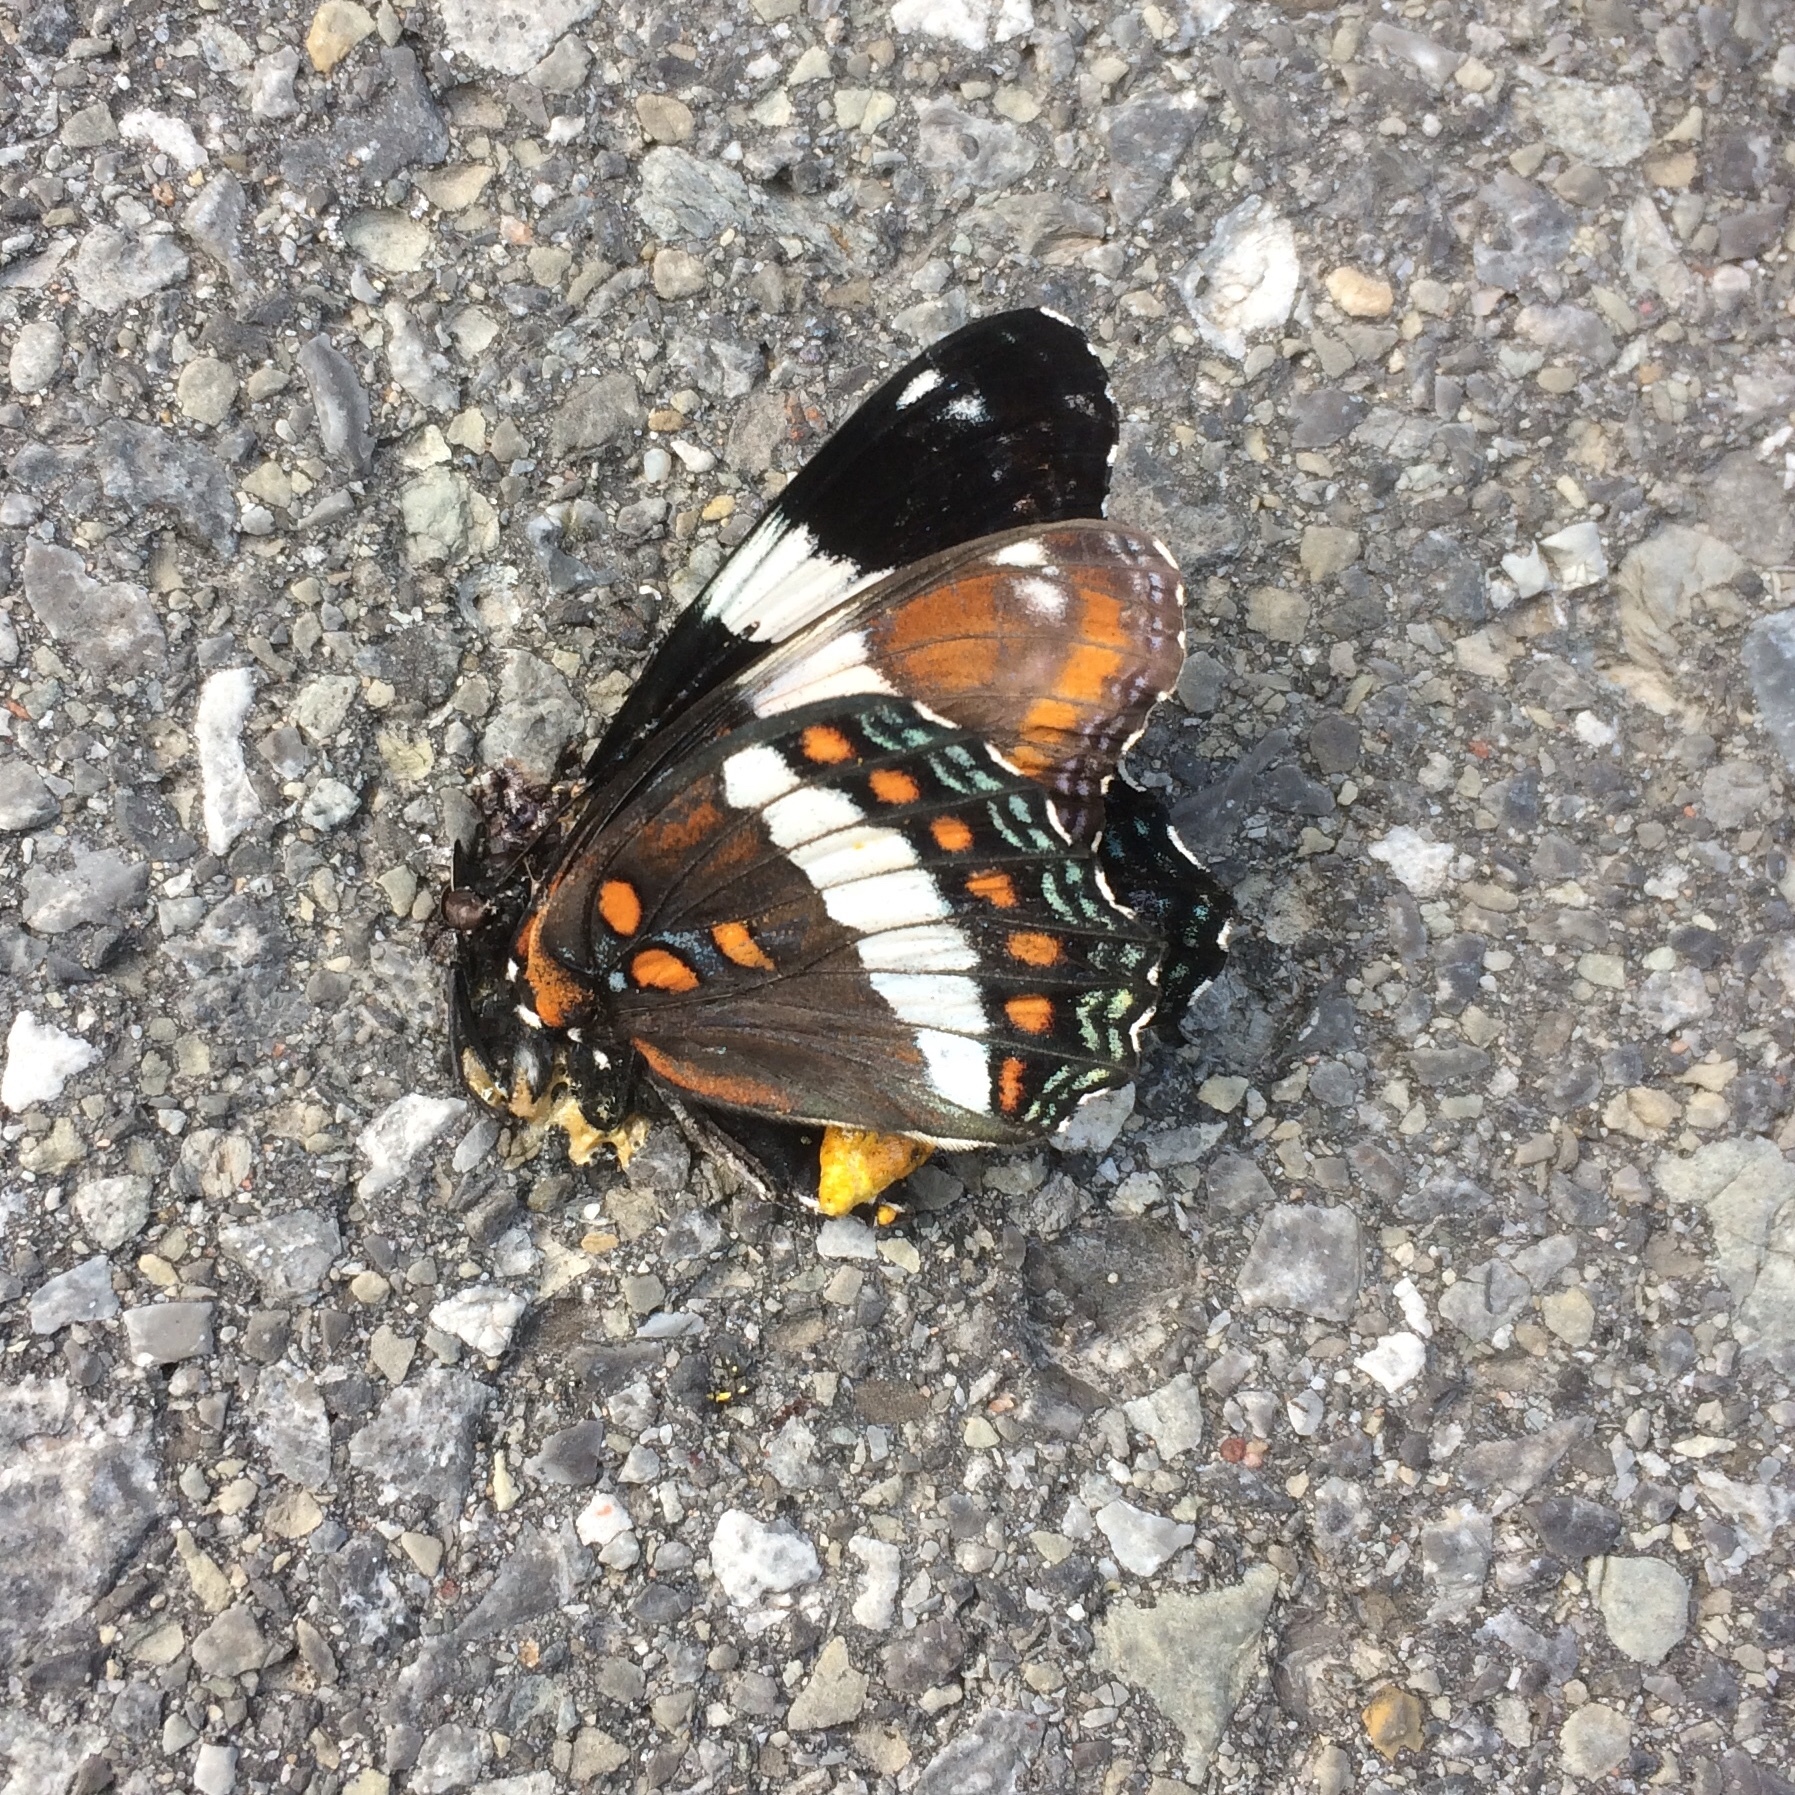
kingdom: Animalia
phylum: Arthropoda
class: Insecta
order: Lepidoptera
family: Nymphalidae
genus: Limenitis
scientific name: Limenitis arthemis
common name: Red-spotted admiral
